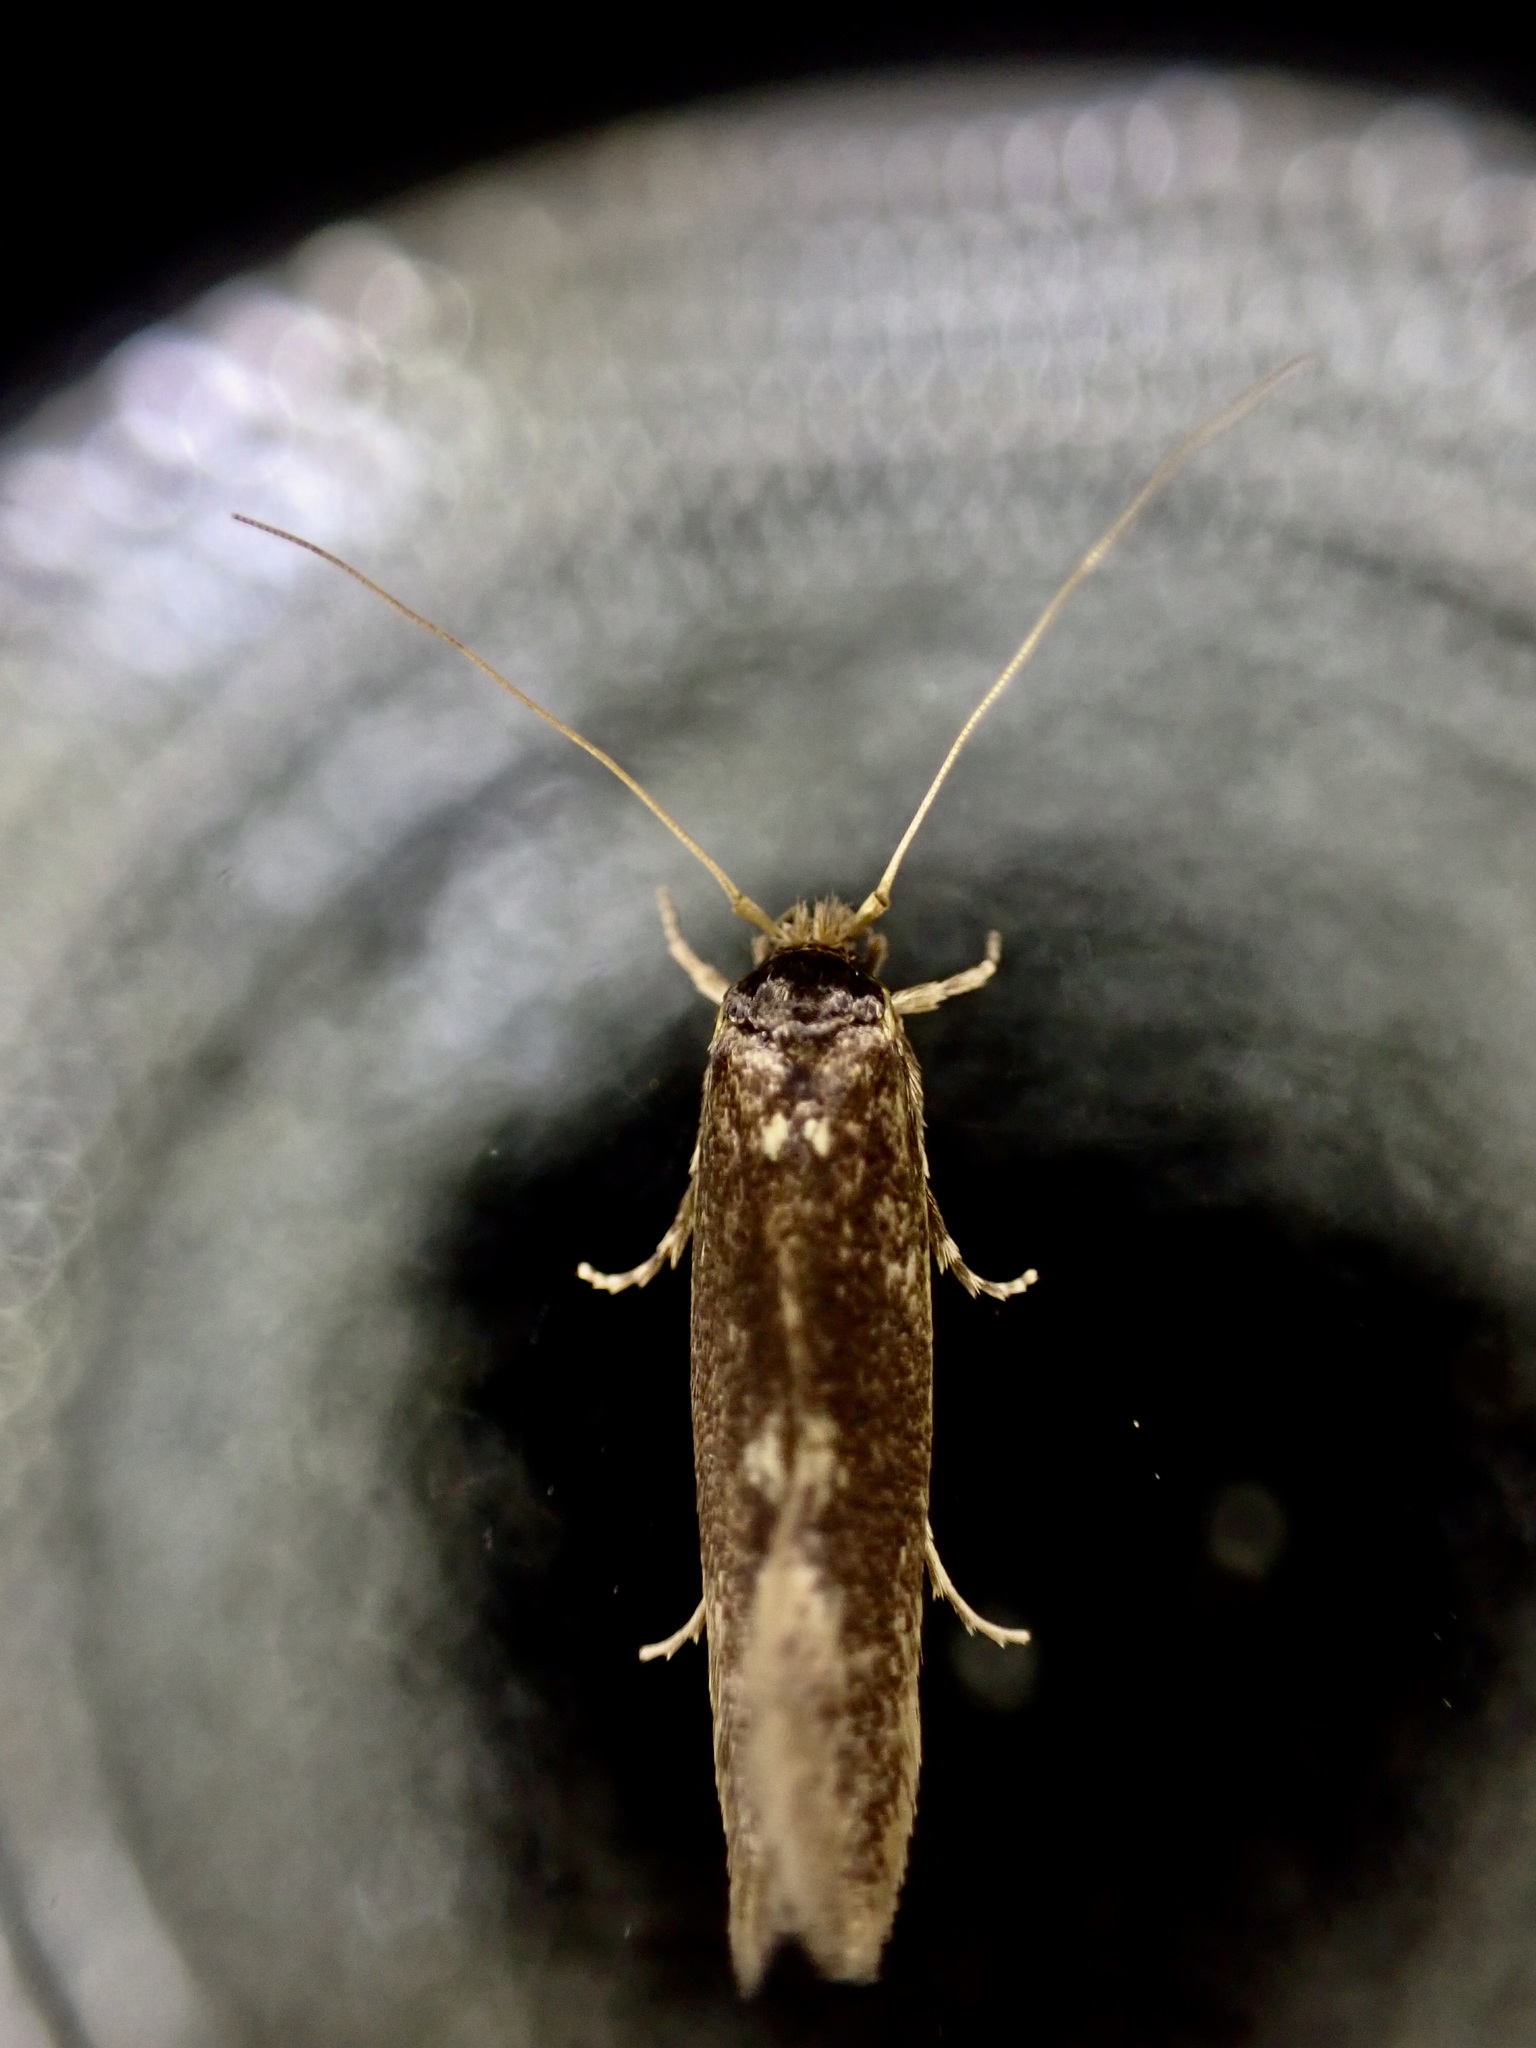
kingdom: Animalia
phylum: Arthropoda
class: Insecta
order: Lepidoptera
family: Tineidae
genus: Opogona
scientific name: Opogona omoscopa
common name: Moth
